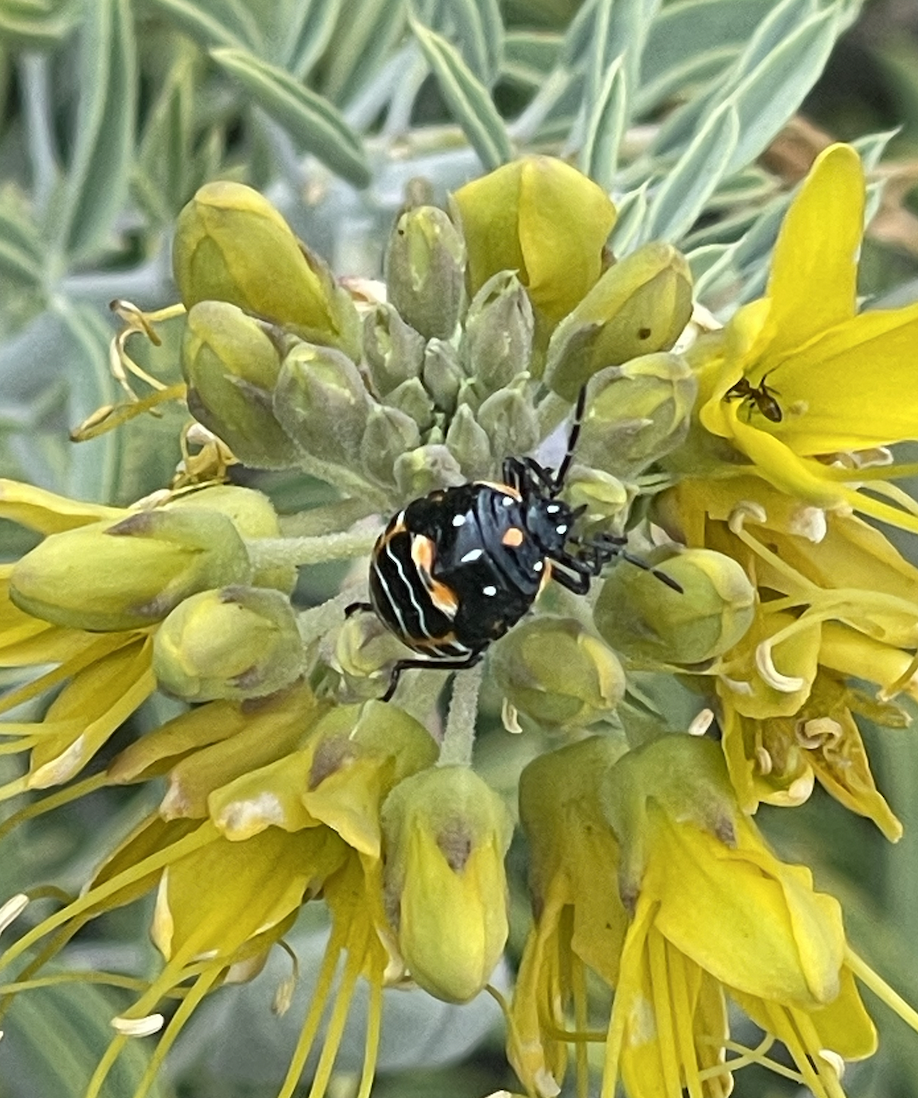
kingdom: Animalia
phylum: Arthropoda
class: Insecta
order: Hemiptera
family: Pentatomidae
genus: Murgantia
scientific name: Murgantia histrionica
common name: Harlequin bug
